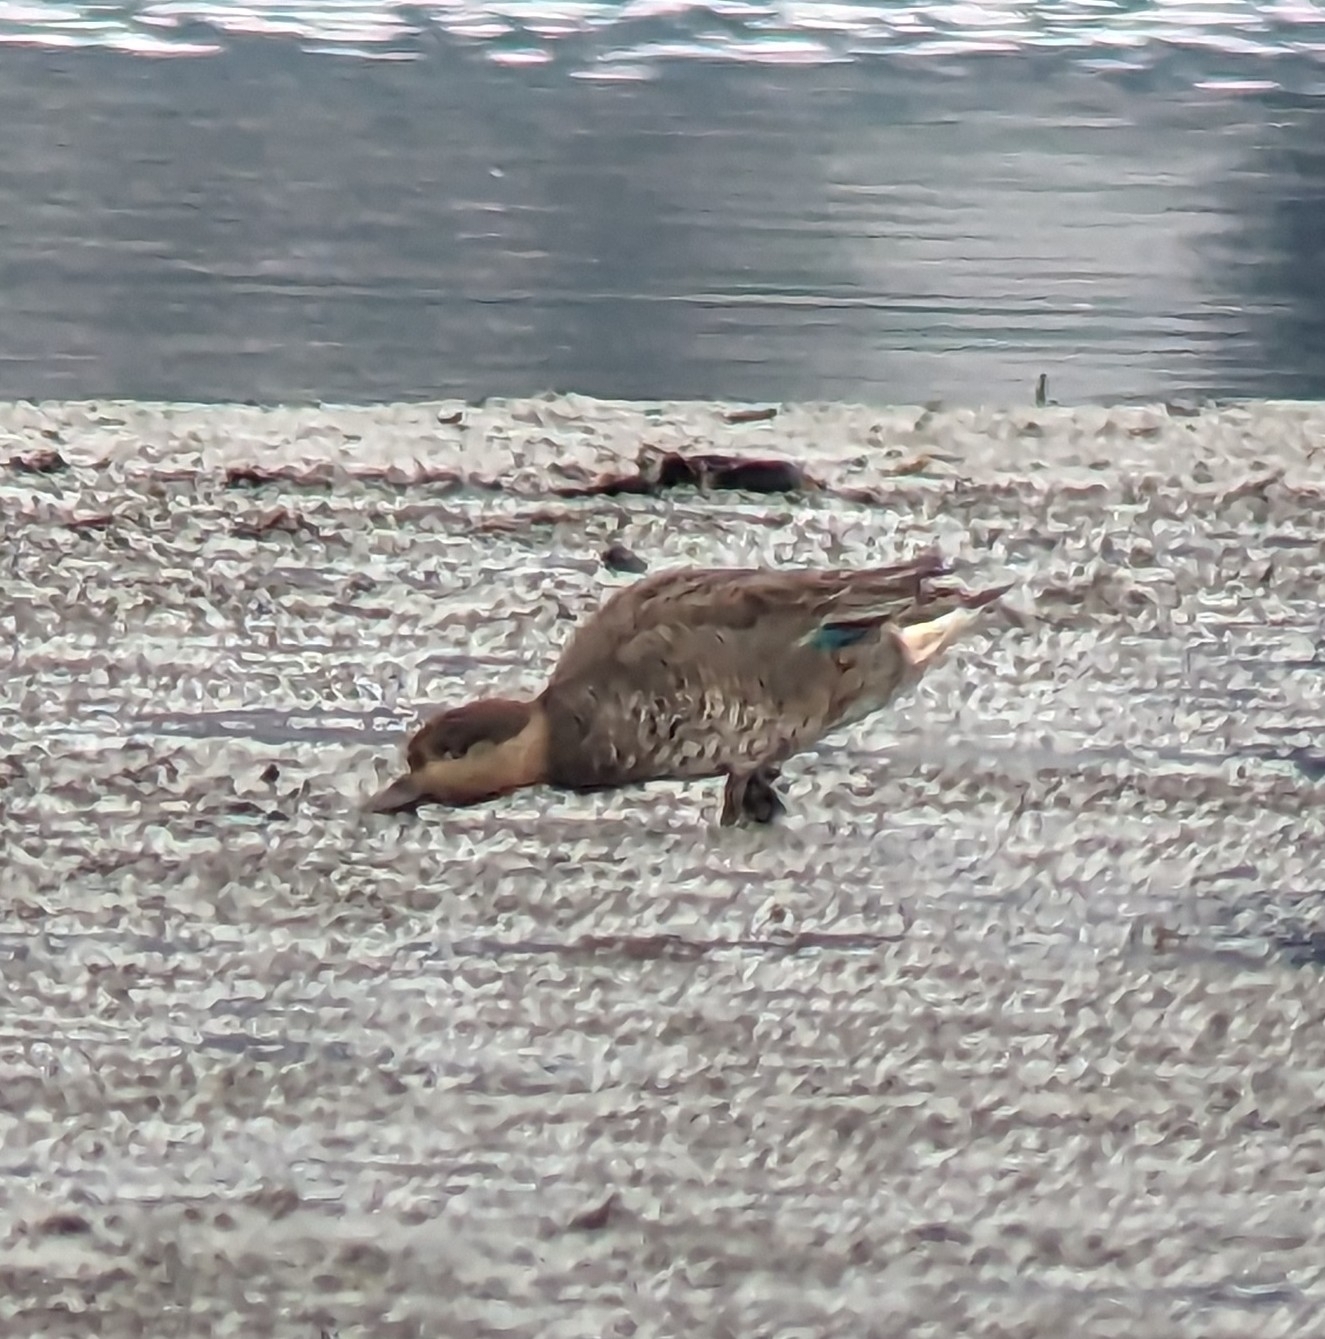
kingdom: Animalia
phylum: Chordata
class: Aves
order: Anseriformes
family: Anatidae
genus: Anas
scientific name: Anas crecca
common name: Eurasian teal
